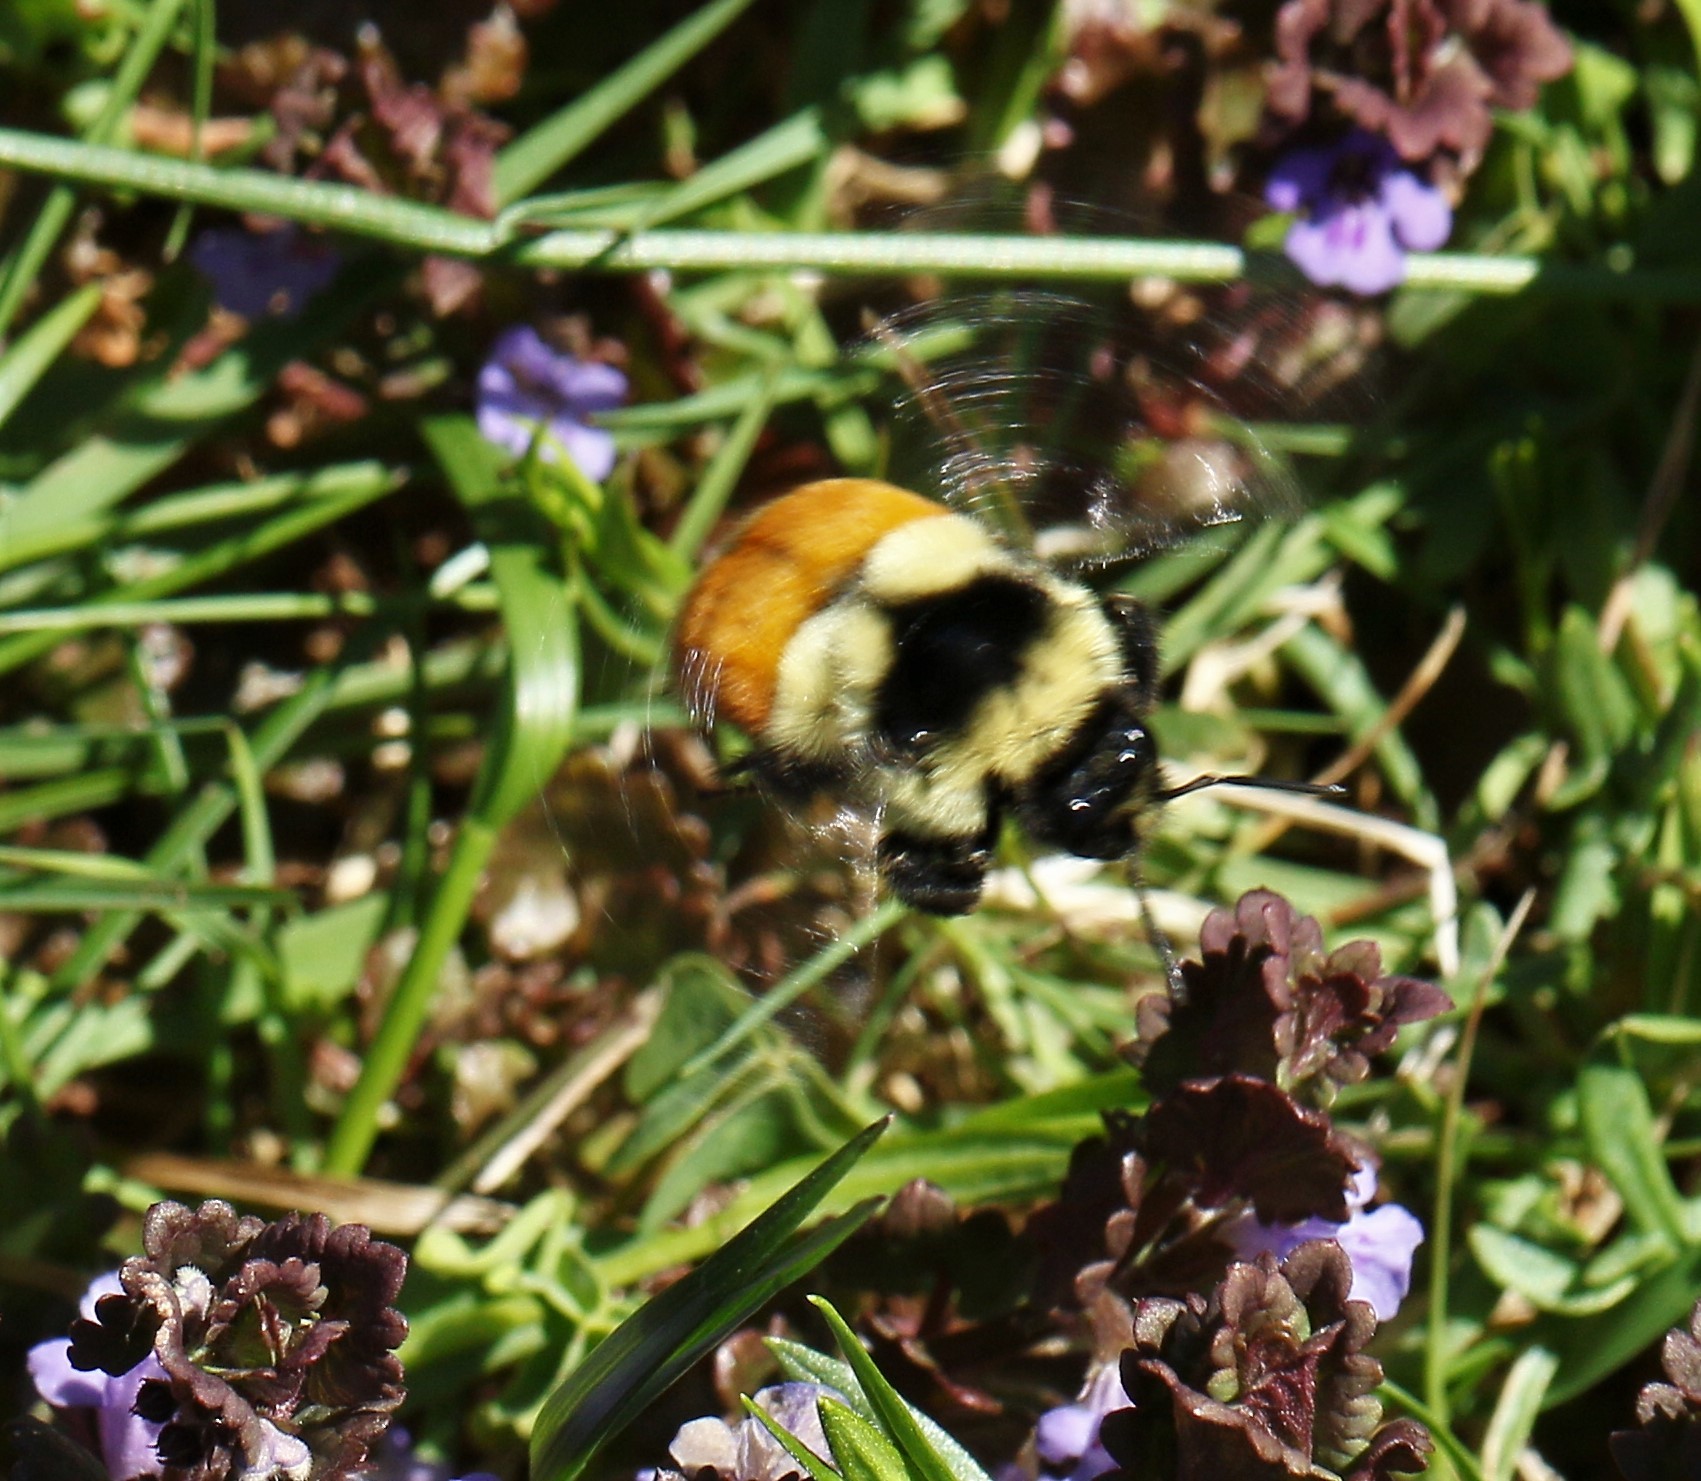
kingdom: Animalia
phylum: Arthropoda
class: Insecta
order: Hymenoptera
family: Apidae
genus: Bombus
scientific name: Bombus ternarius
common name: Tri-colored bumble bee
